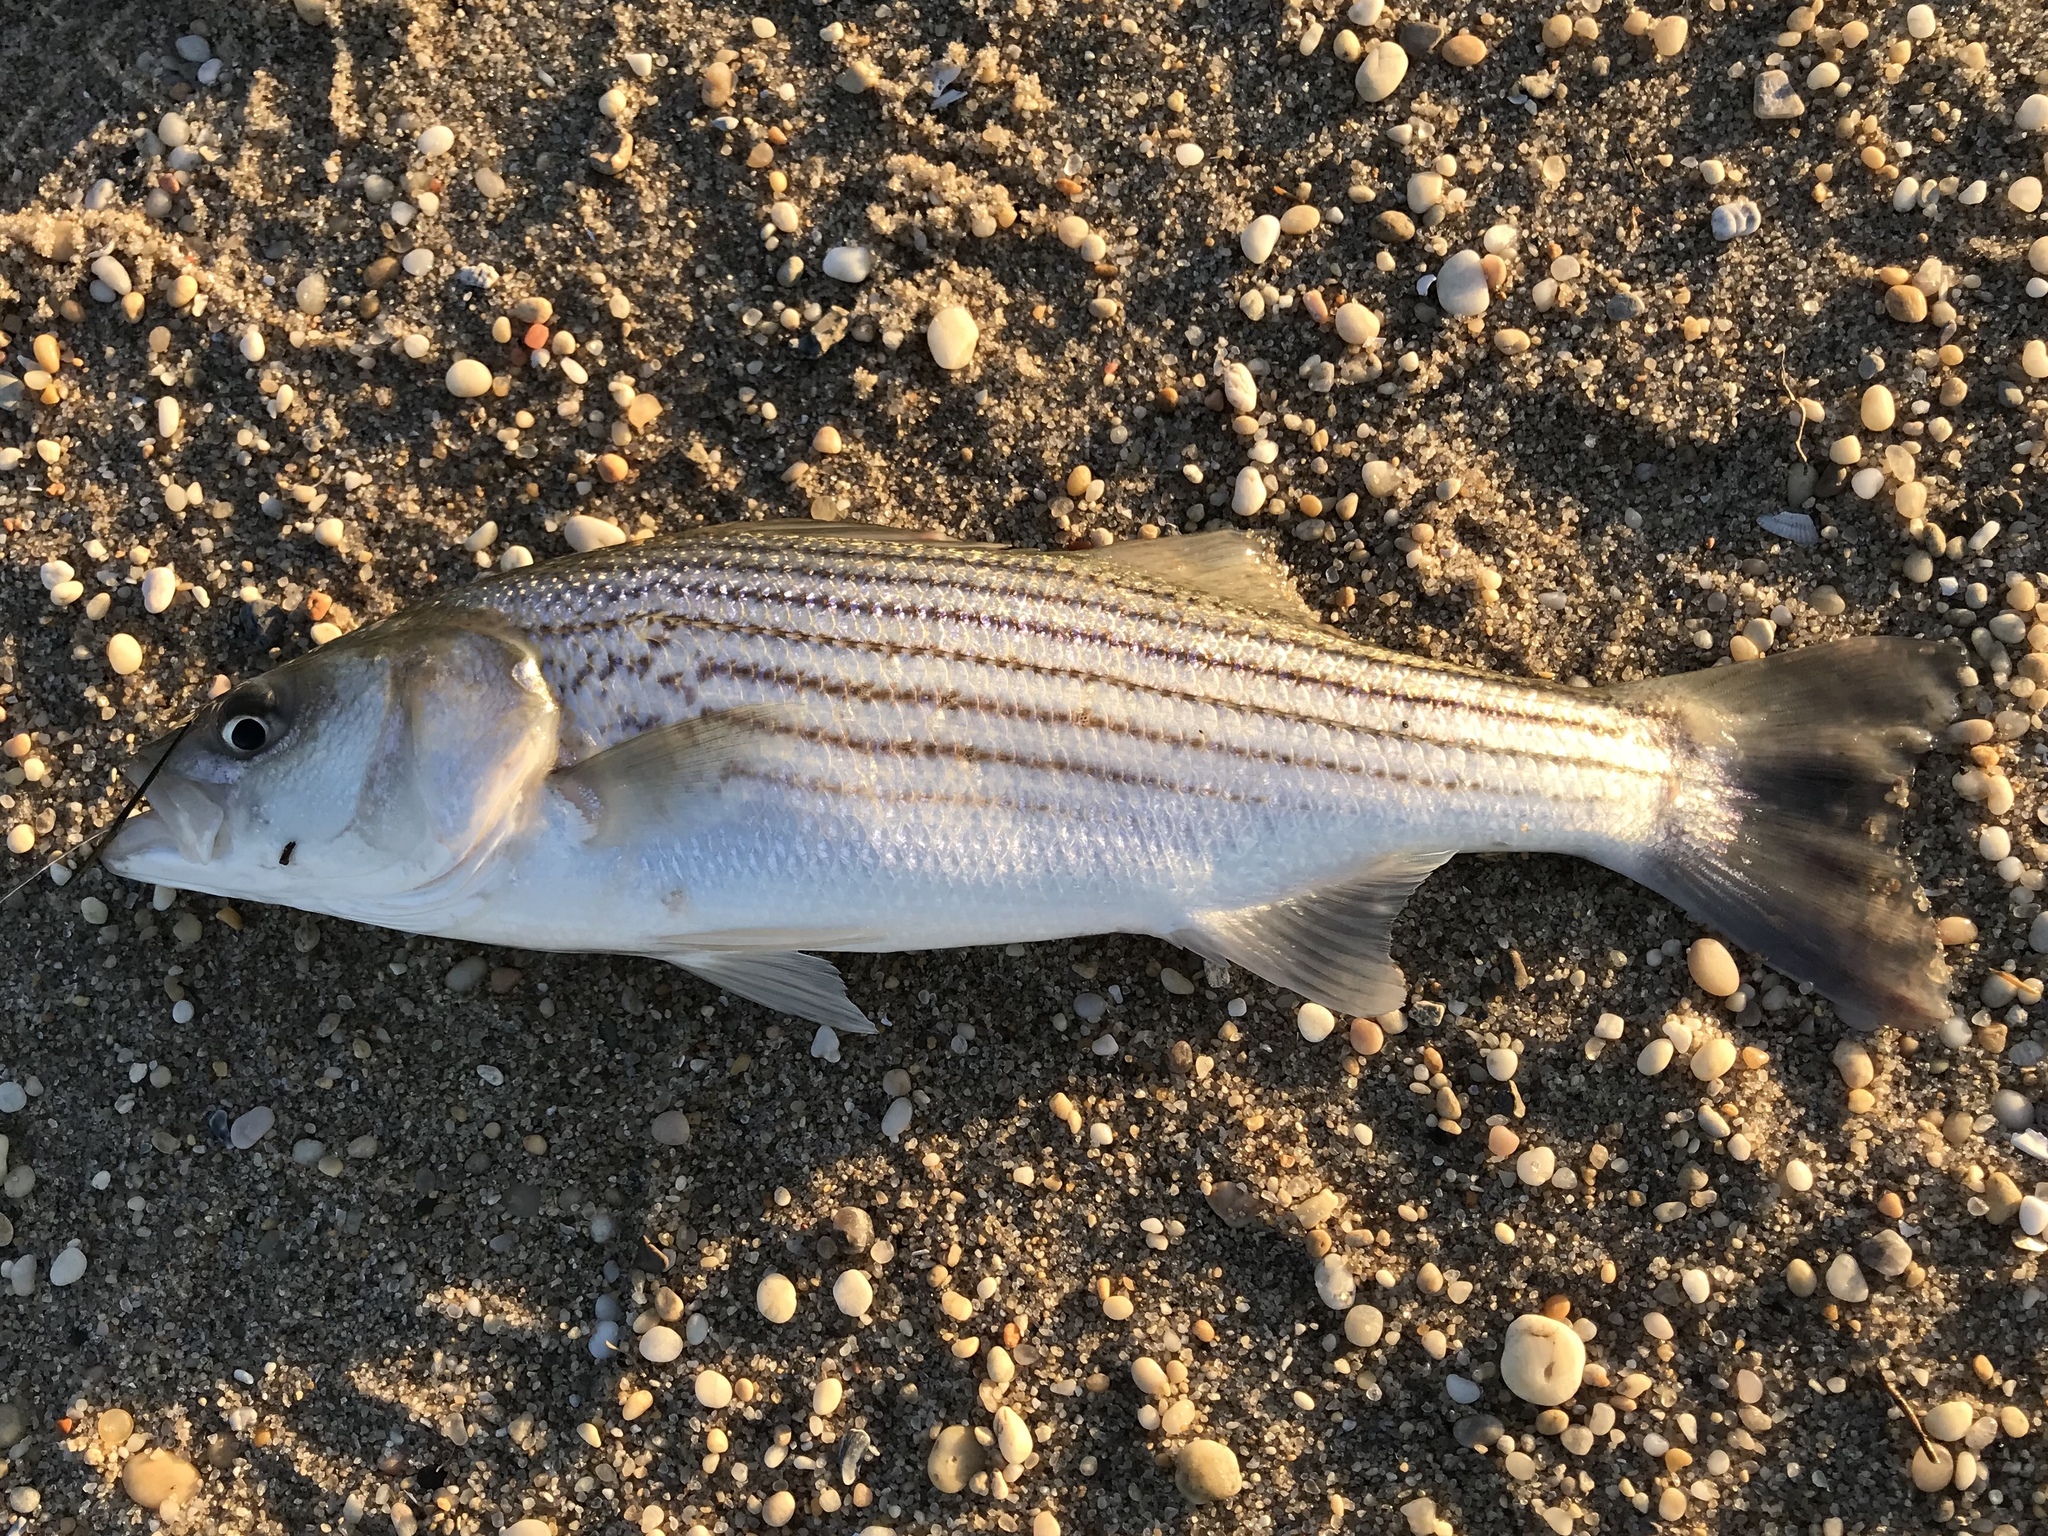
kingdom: Animalia
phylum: Chordata
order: Perciformes
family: Moronidae
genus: Morone
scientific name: Morone saxatilis
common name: Striped bass
